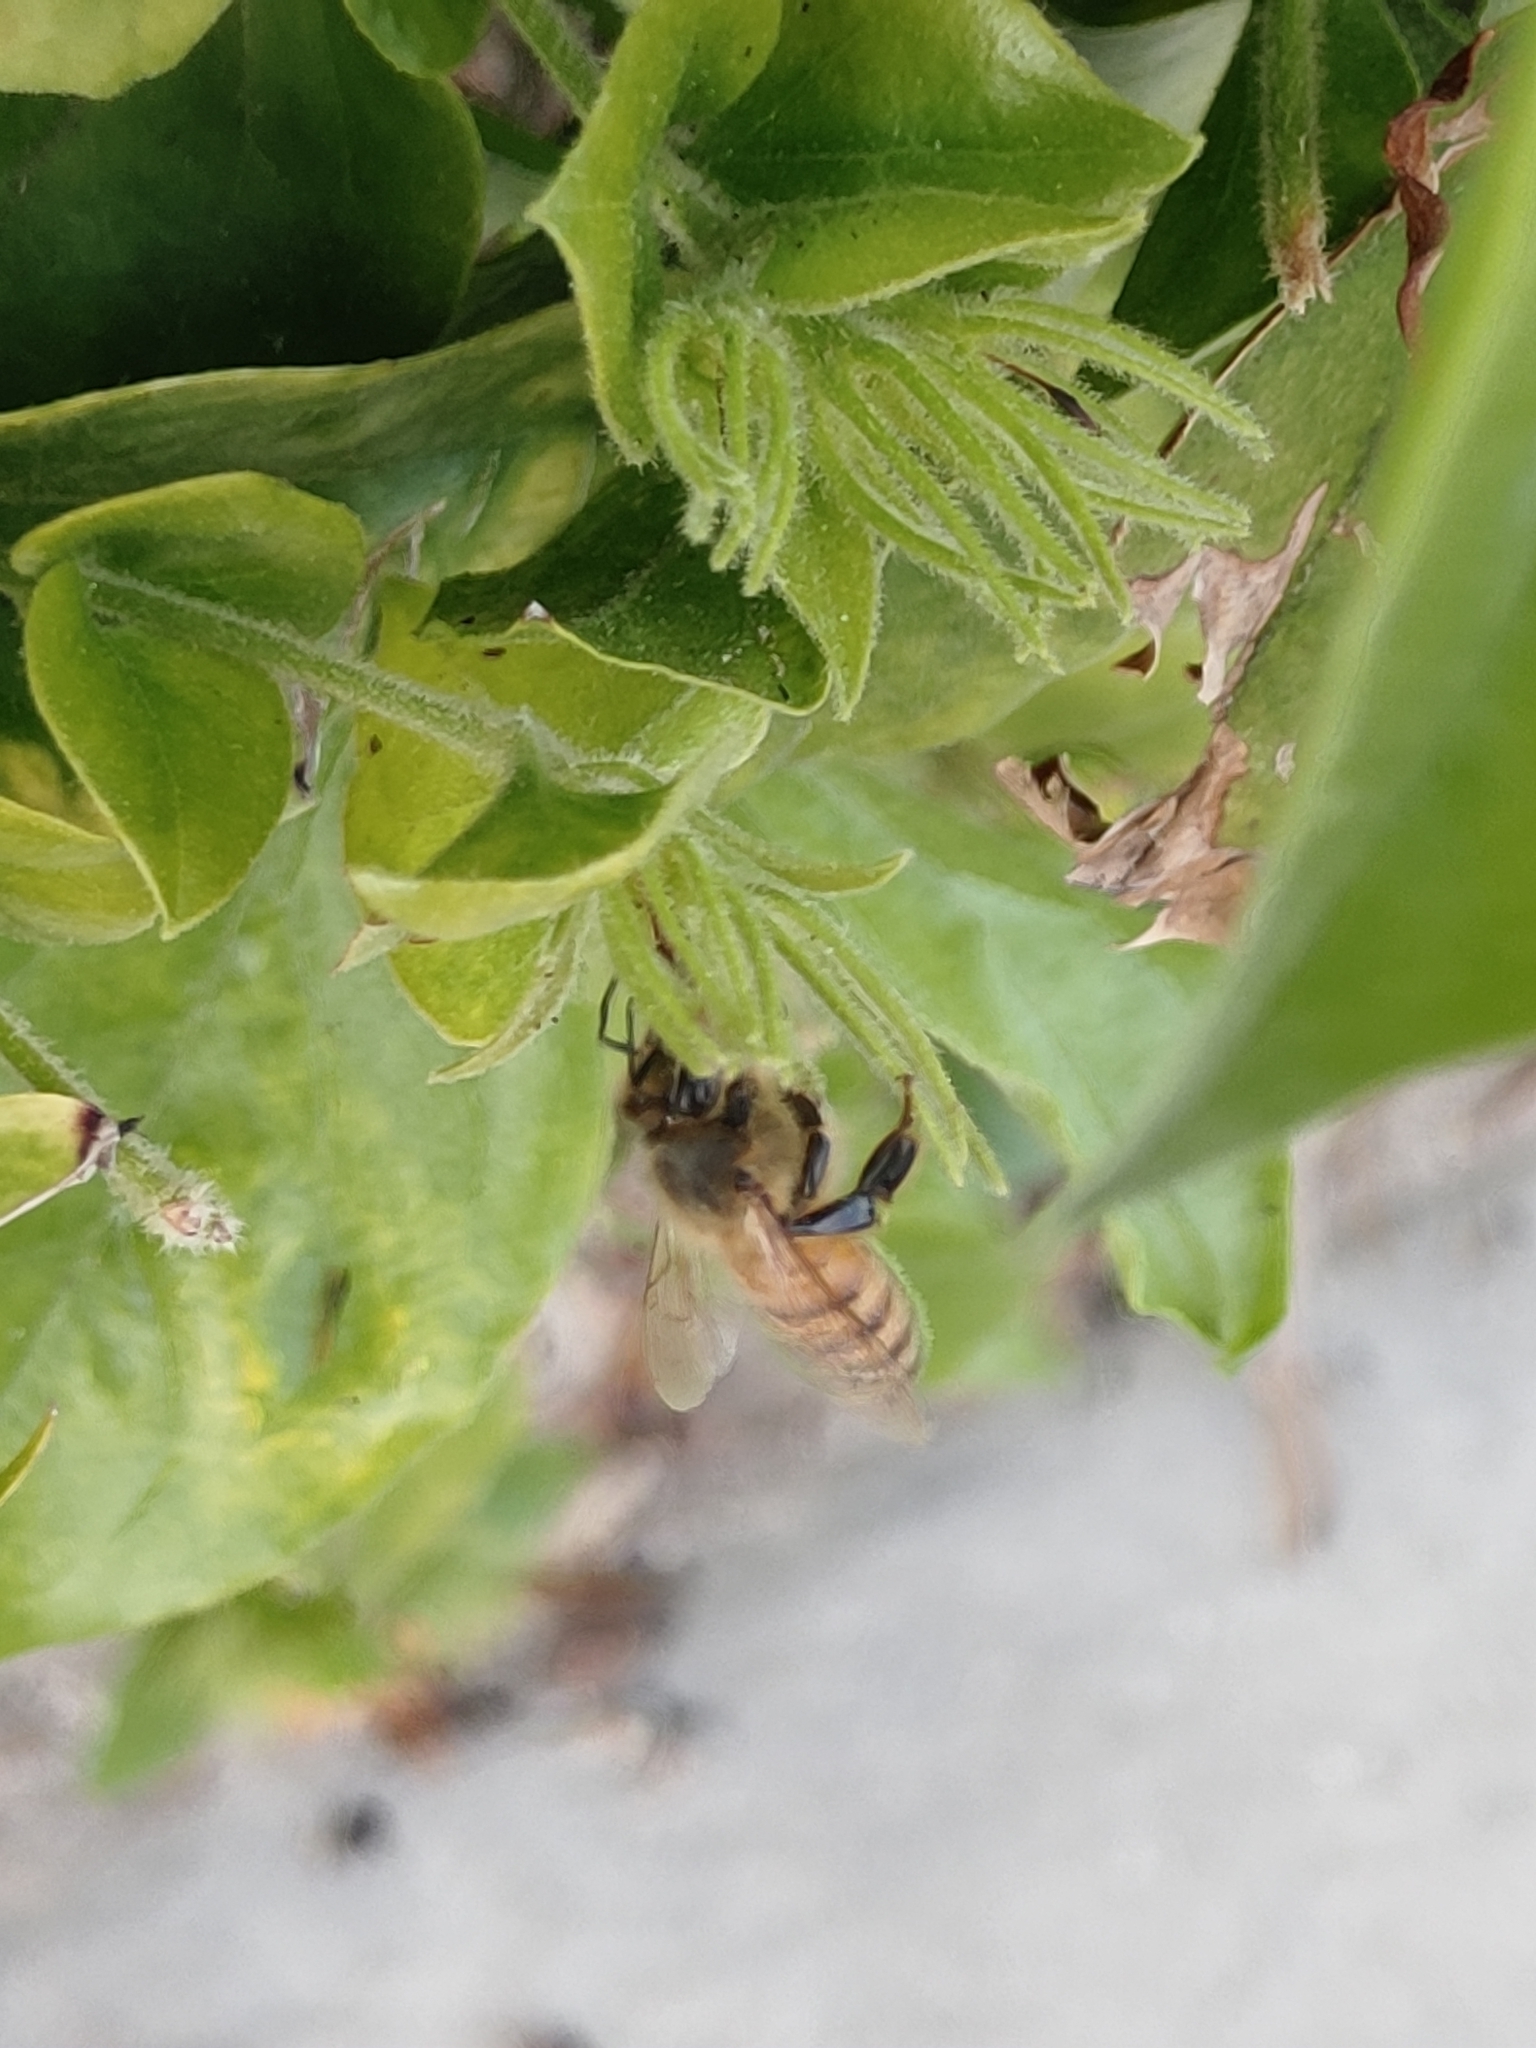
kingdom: Animalia
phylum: Arthropoda
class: Insecta
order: Hymenoptera
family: Apidae
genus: Apis
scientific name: Apis mellifera
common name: Honey bee
